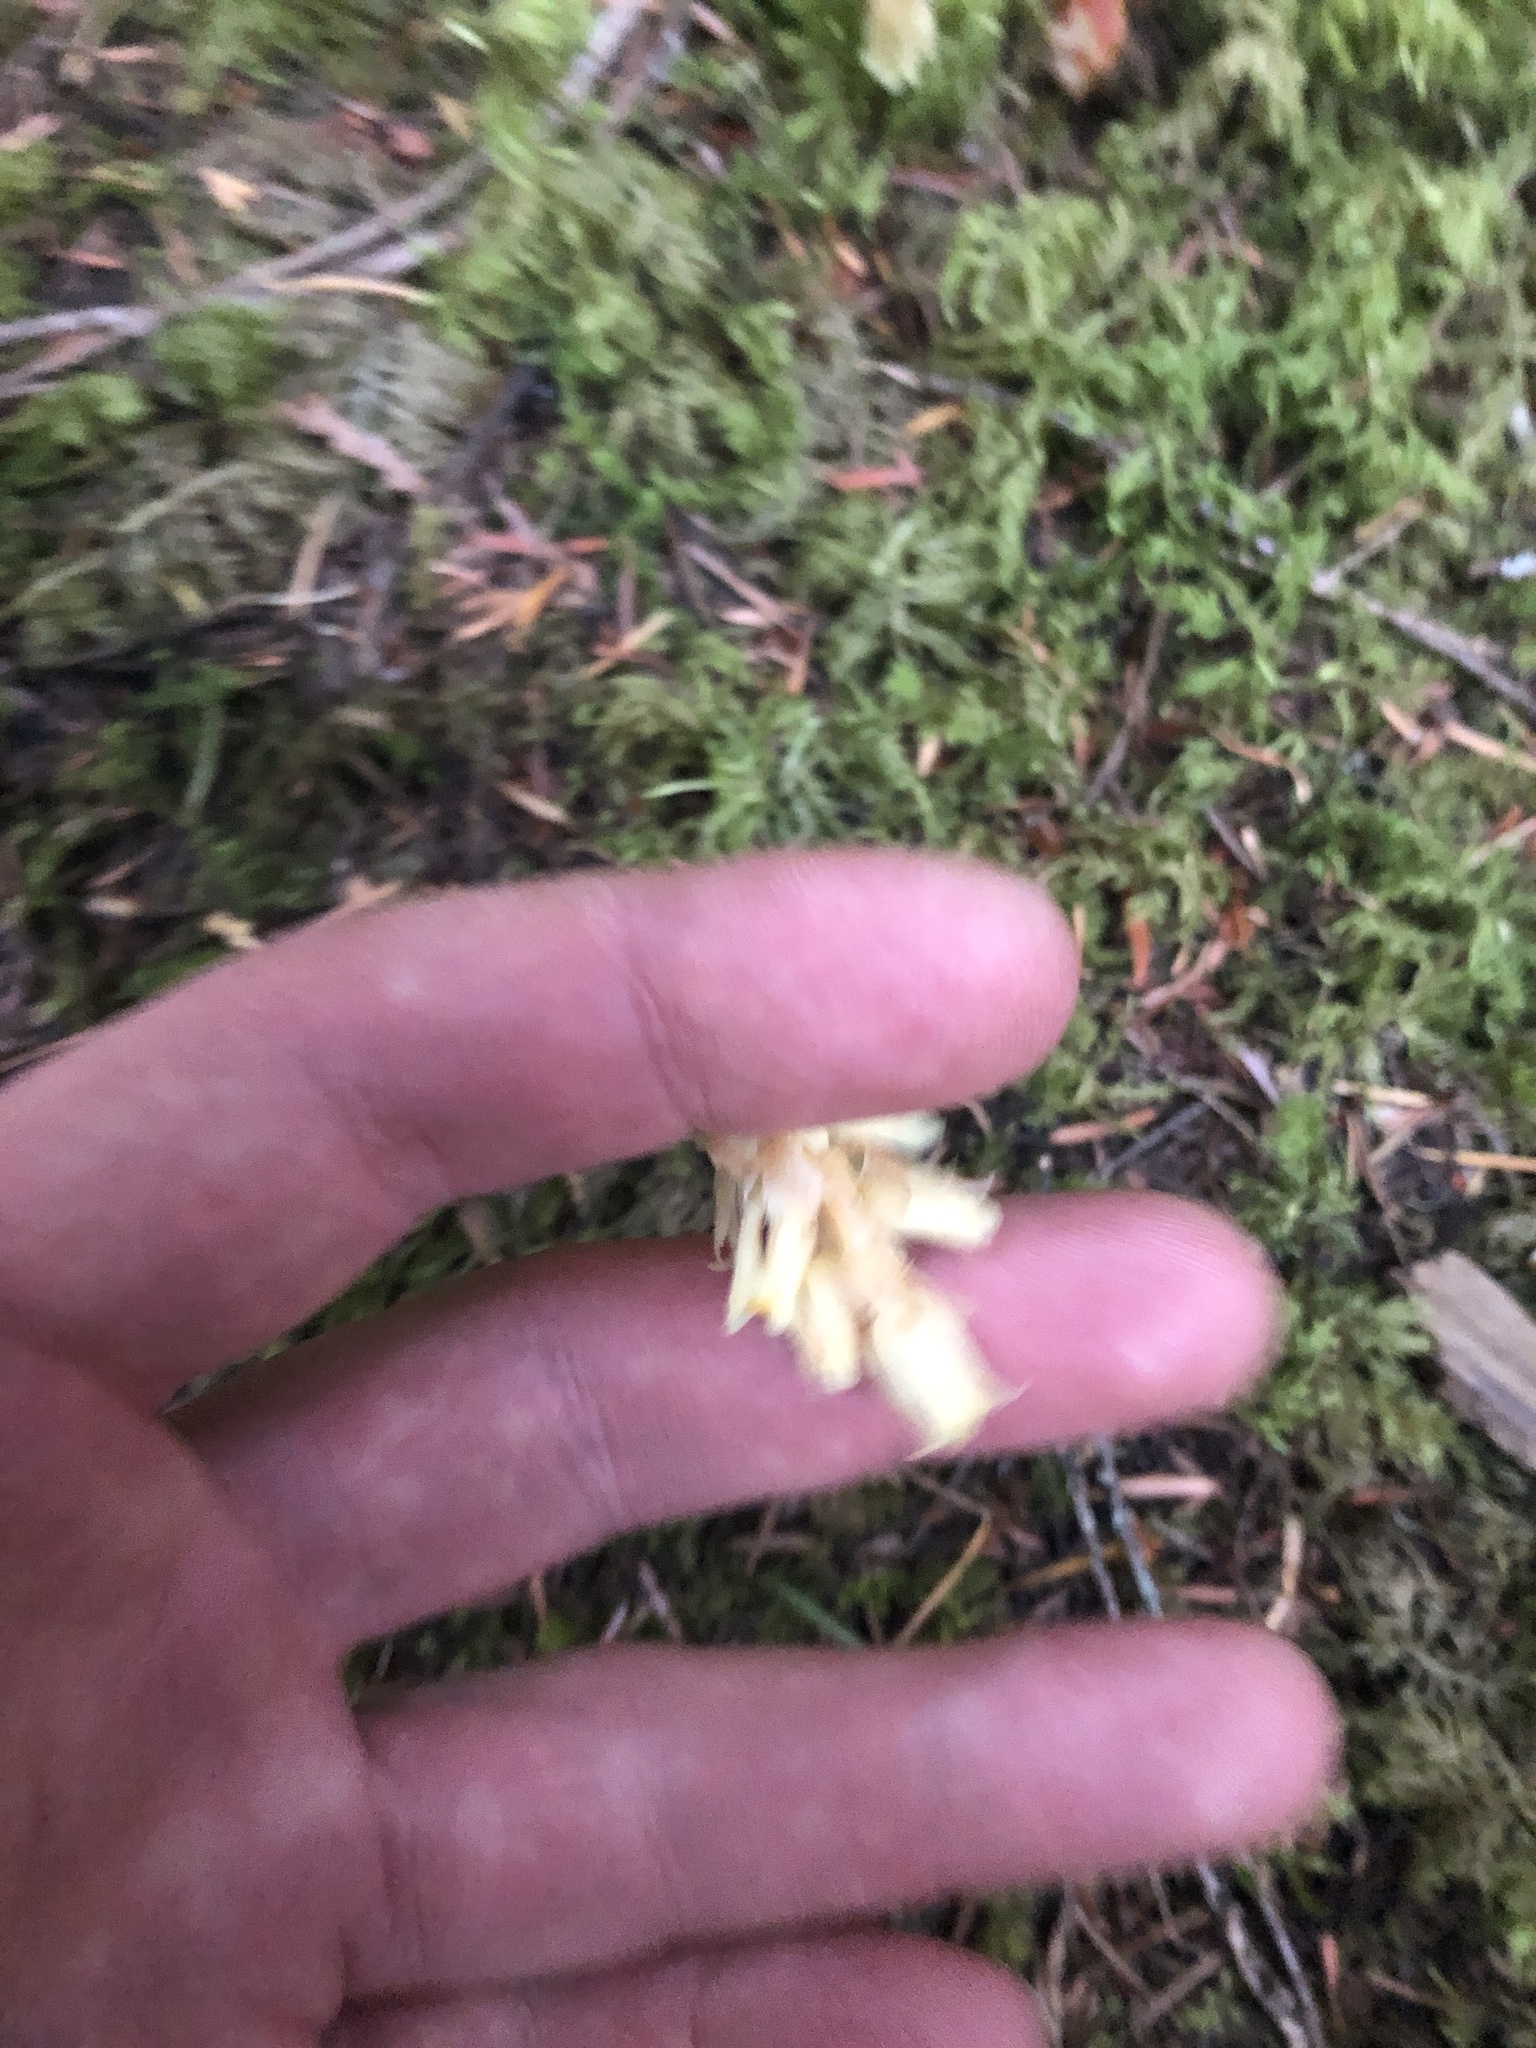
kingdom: Plantae
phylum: Tracheophyta
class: Magnoliopsida
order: Ericales
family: Ericaceae
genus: Hypopitys
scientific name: Hypopitys monotropa
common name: Yellow bird's-nest
